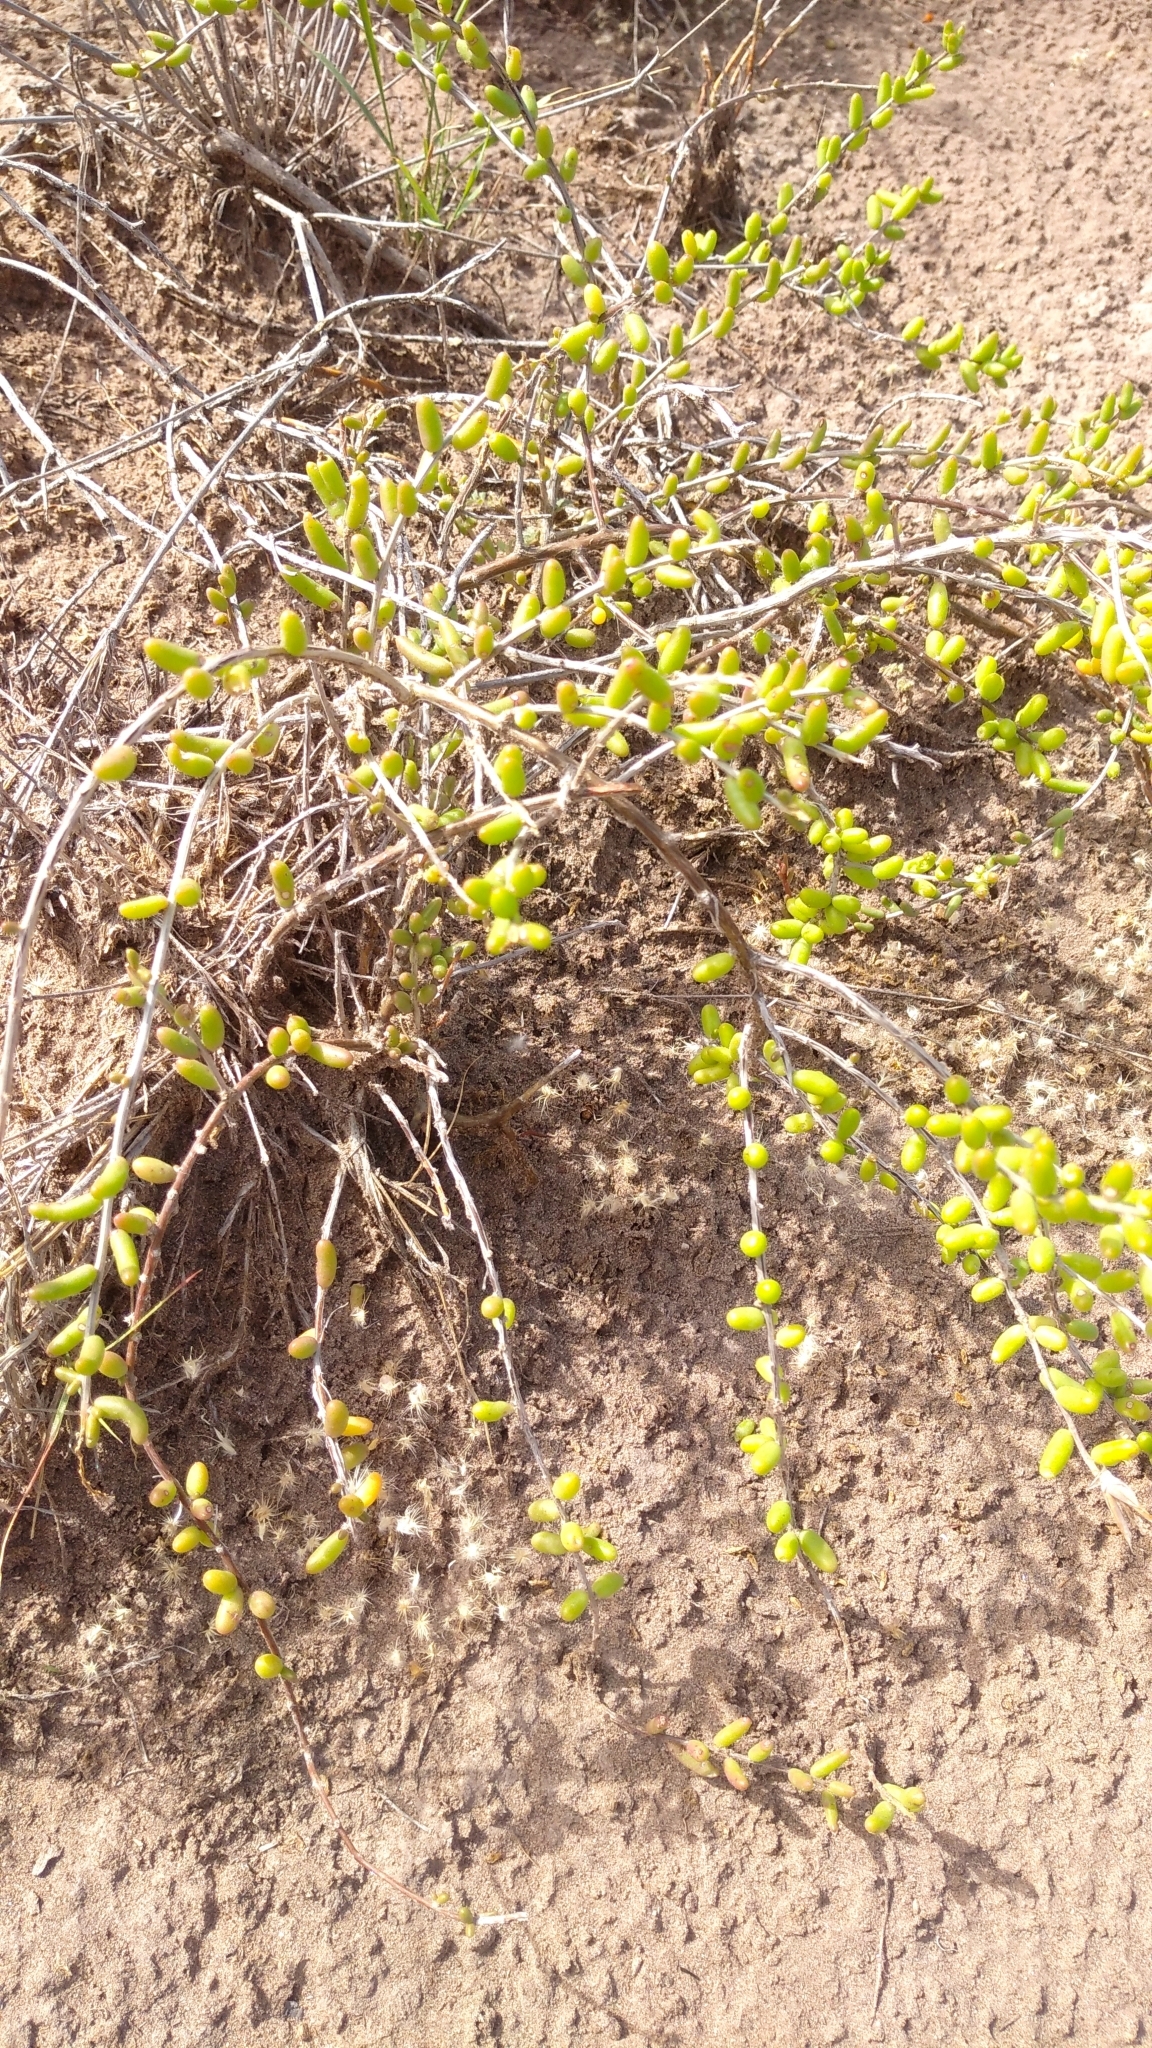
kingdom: Plantae
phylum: Tracheophyta
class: Magnoliopsida
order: Caryophyllales
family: Anacampserotaceae
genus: Grahamia
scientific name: Grahamia bracteata
